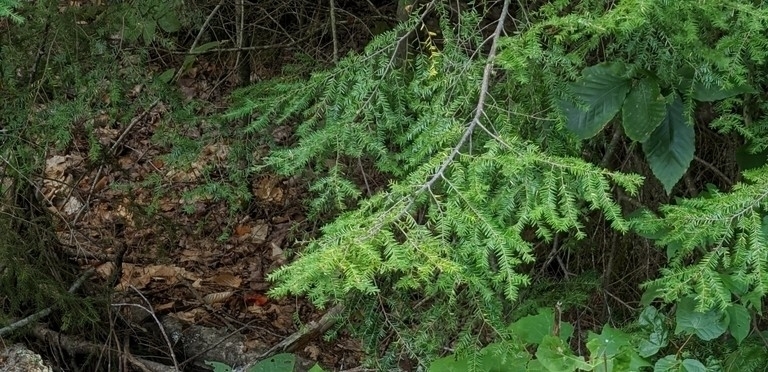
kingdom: Plantae
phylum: Tracheophyta
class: Pinopsida
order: Pinales
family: Pinaceae
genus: Tsuga
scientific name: Tsuga canadensis
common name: Eastern hemlock
